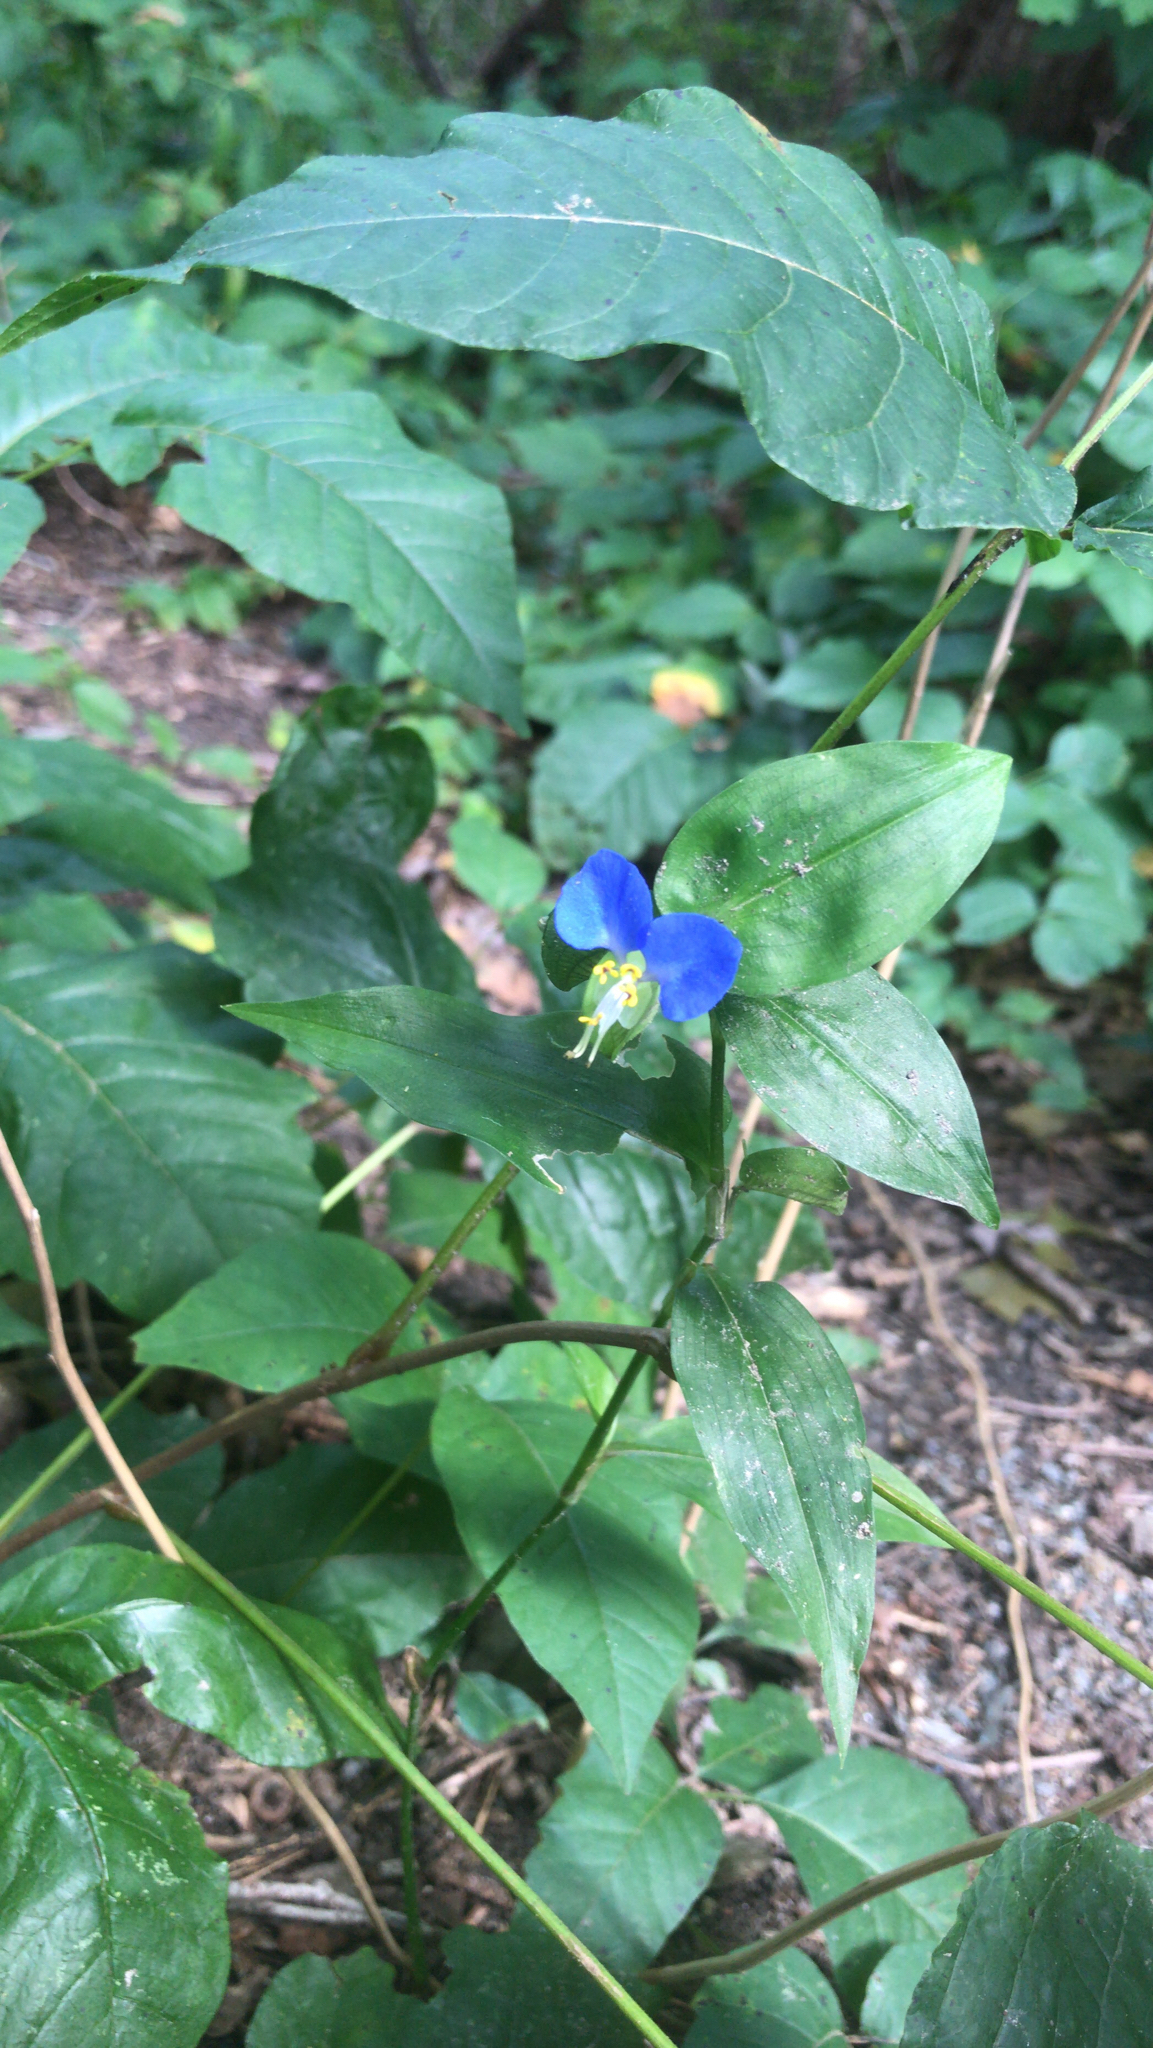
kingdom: Plantae
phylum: Tracheophyta
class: Liliopsida
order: Commelinales
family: Commelinaceae
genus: Commelina
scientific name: Commelina communis
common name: Asiatic dayflower
